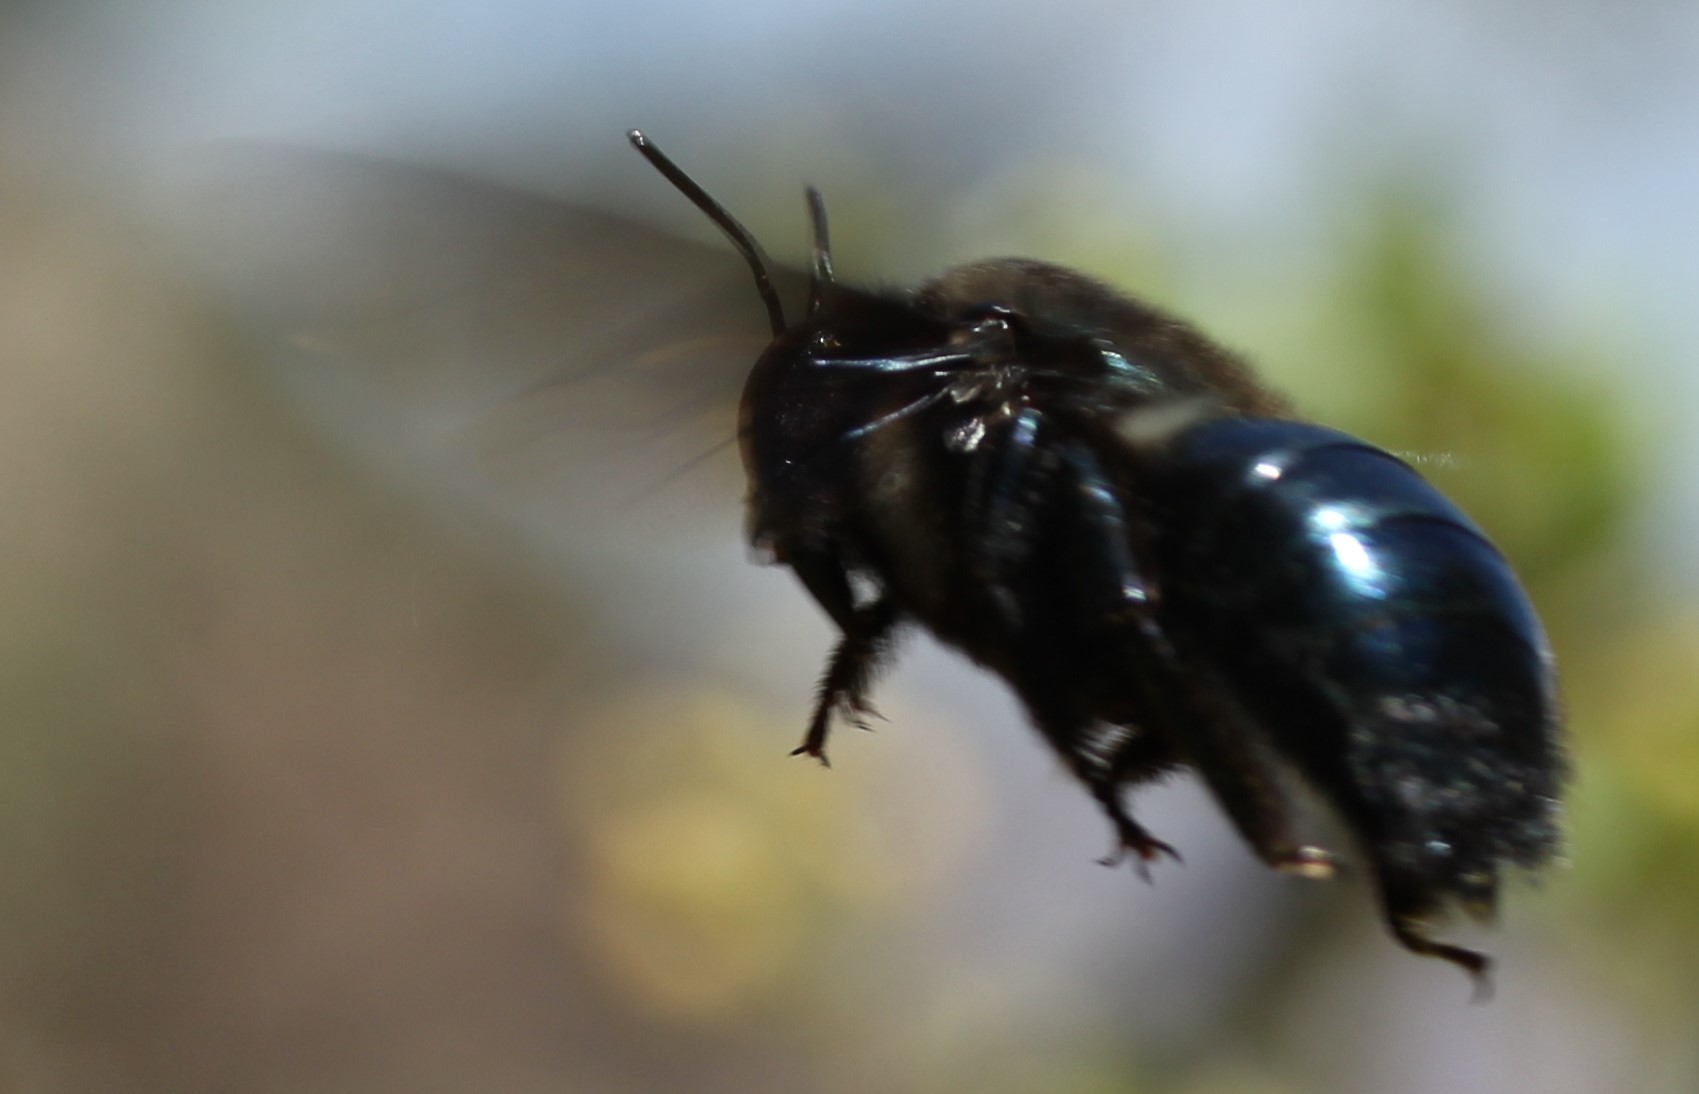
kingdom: Animalia
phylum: Arthropoda
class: Insecta
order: Hymenoptera
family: Apidae
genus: Xylocopa
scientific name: Xylocopa californica
